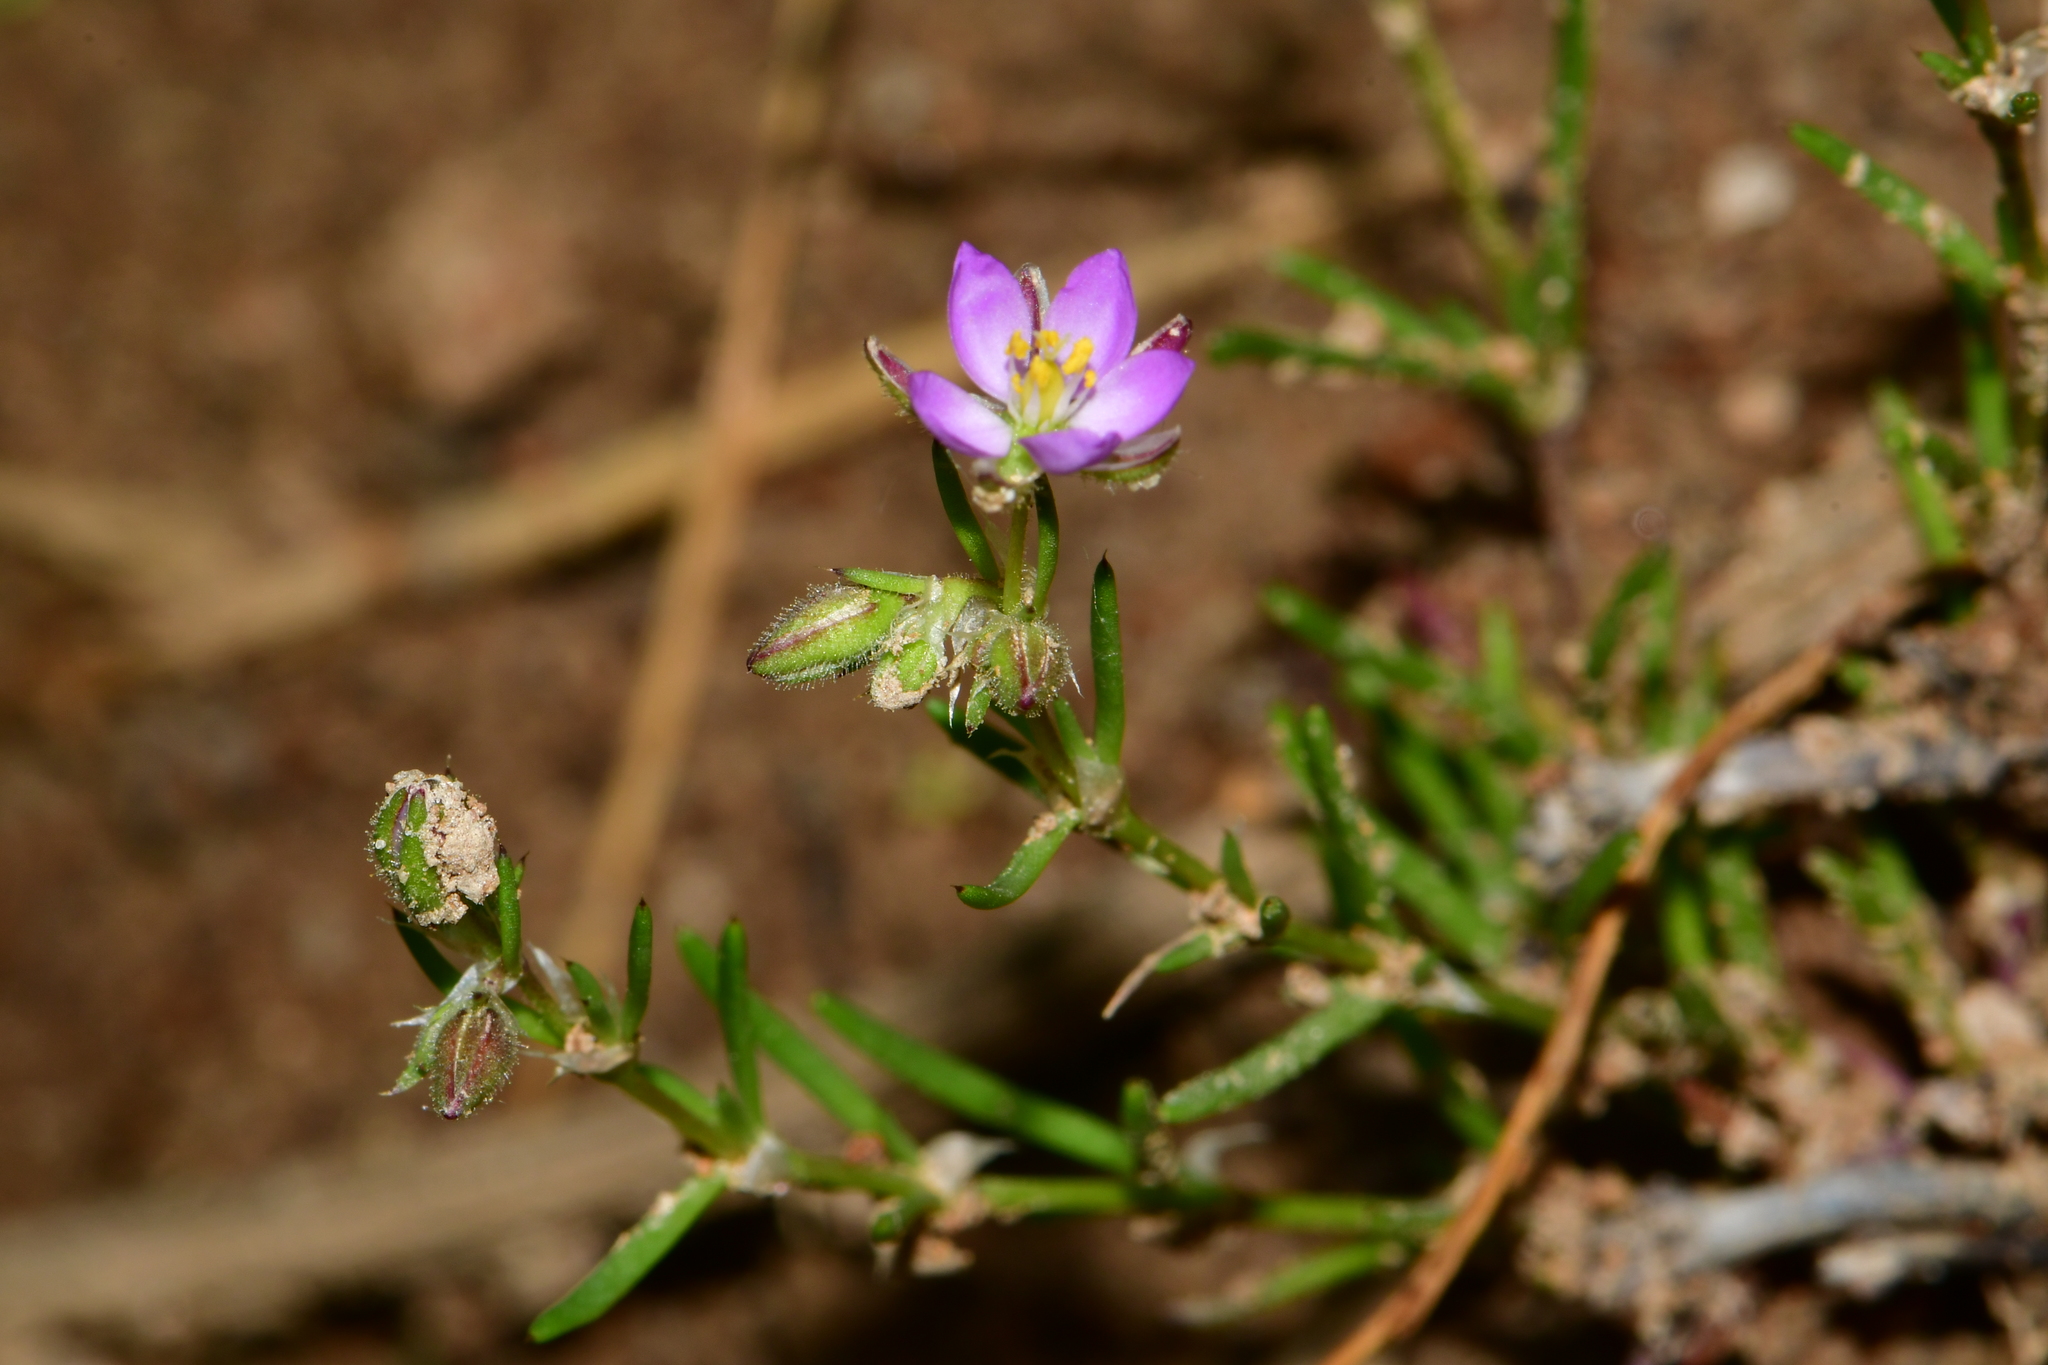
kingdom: Plantae
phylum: Tracheophyta
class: Magnoliopsida
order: Caryophyllales
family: Caryophyllaceae
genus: Spergularia
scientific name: Spergularia rubra
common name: Red sand-spurrey
